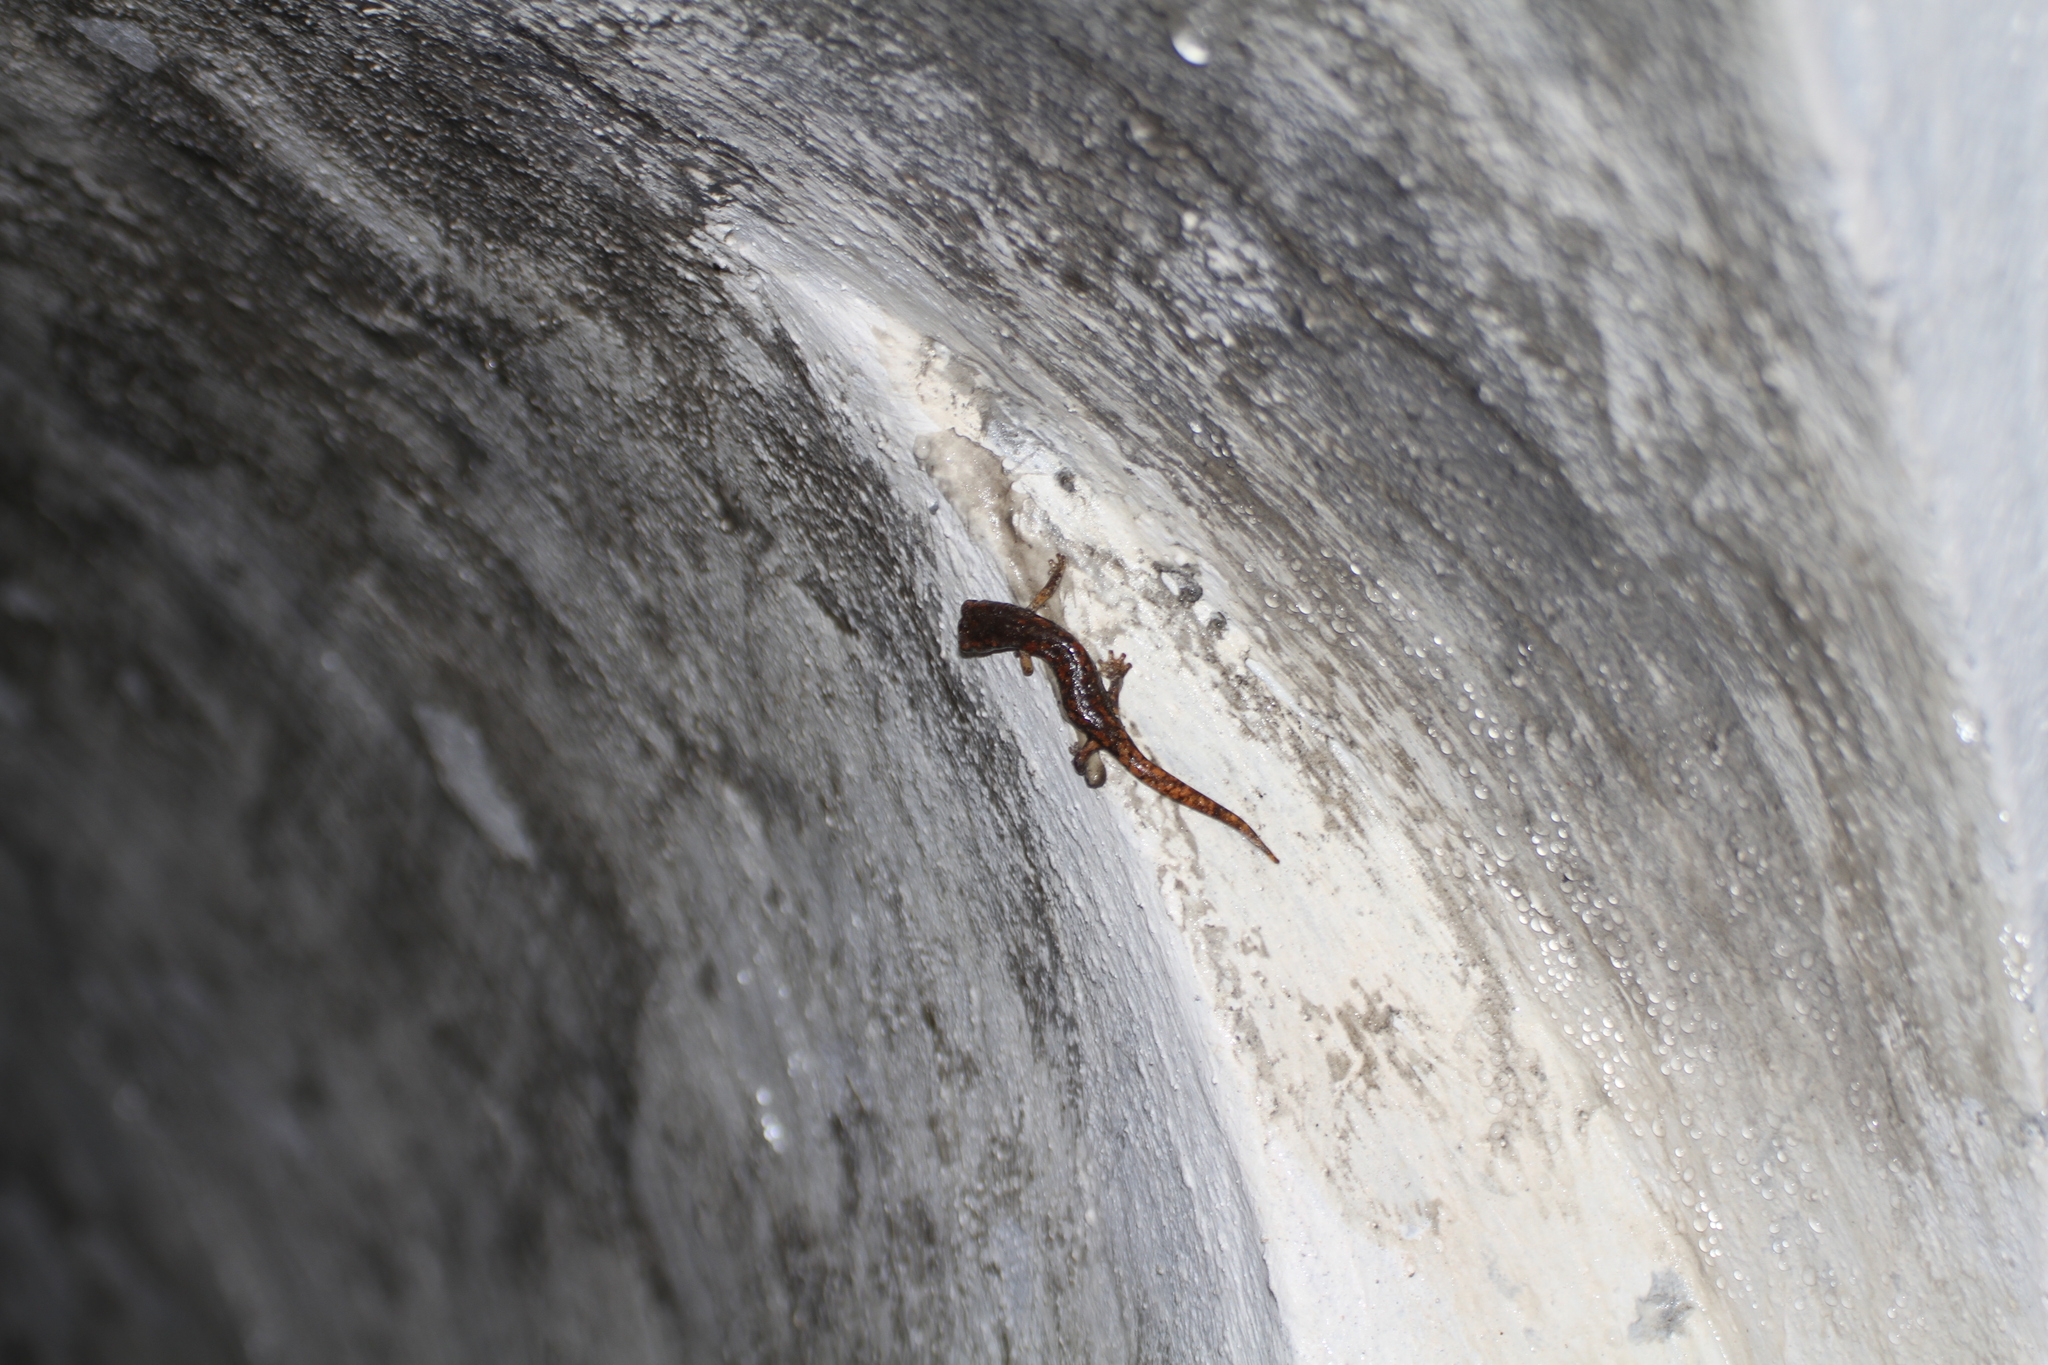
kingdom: Animalia
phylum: Chordata
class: Amphibia
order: Caudata
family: Plethodontidae
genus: Speleomantes
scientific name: Speleomantes strinatii
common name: French cave salamander
